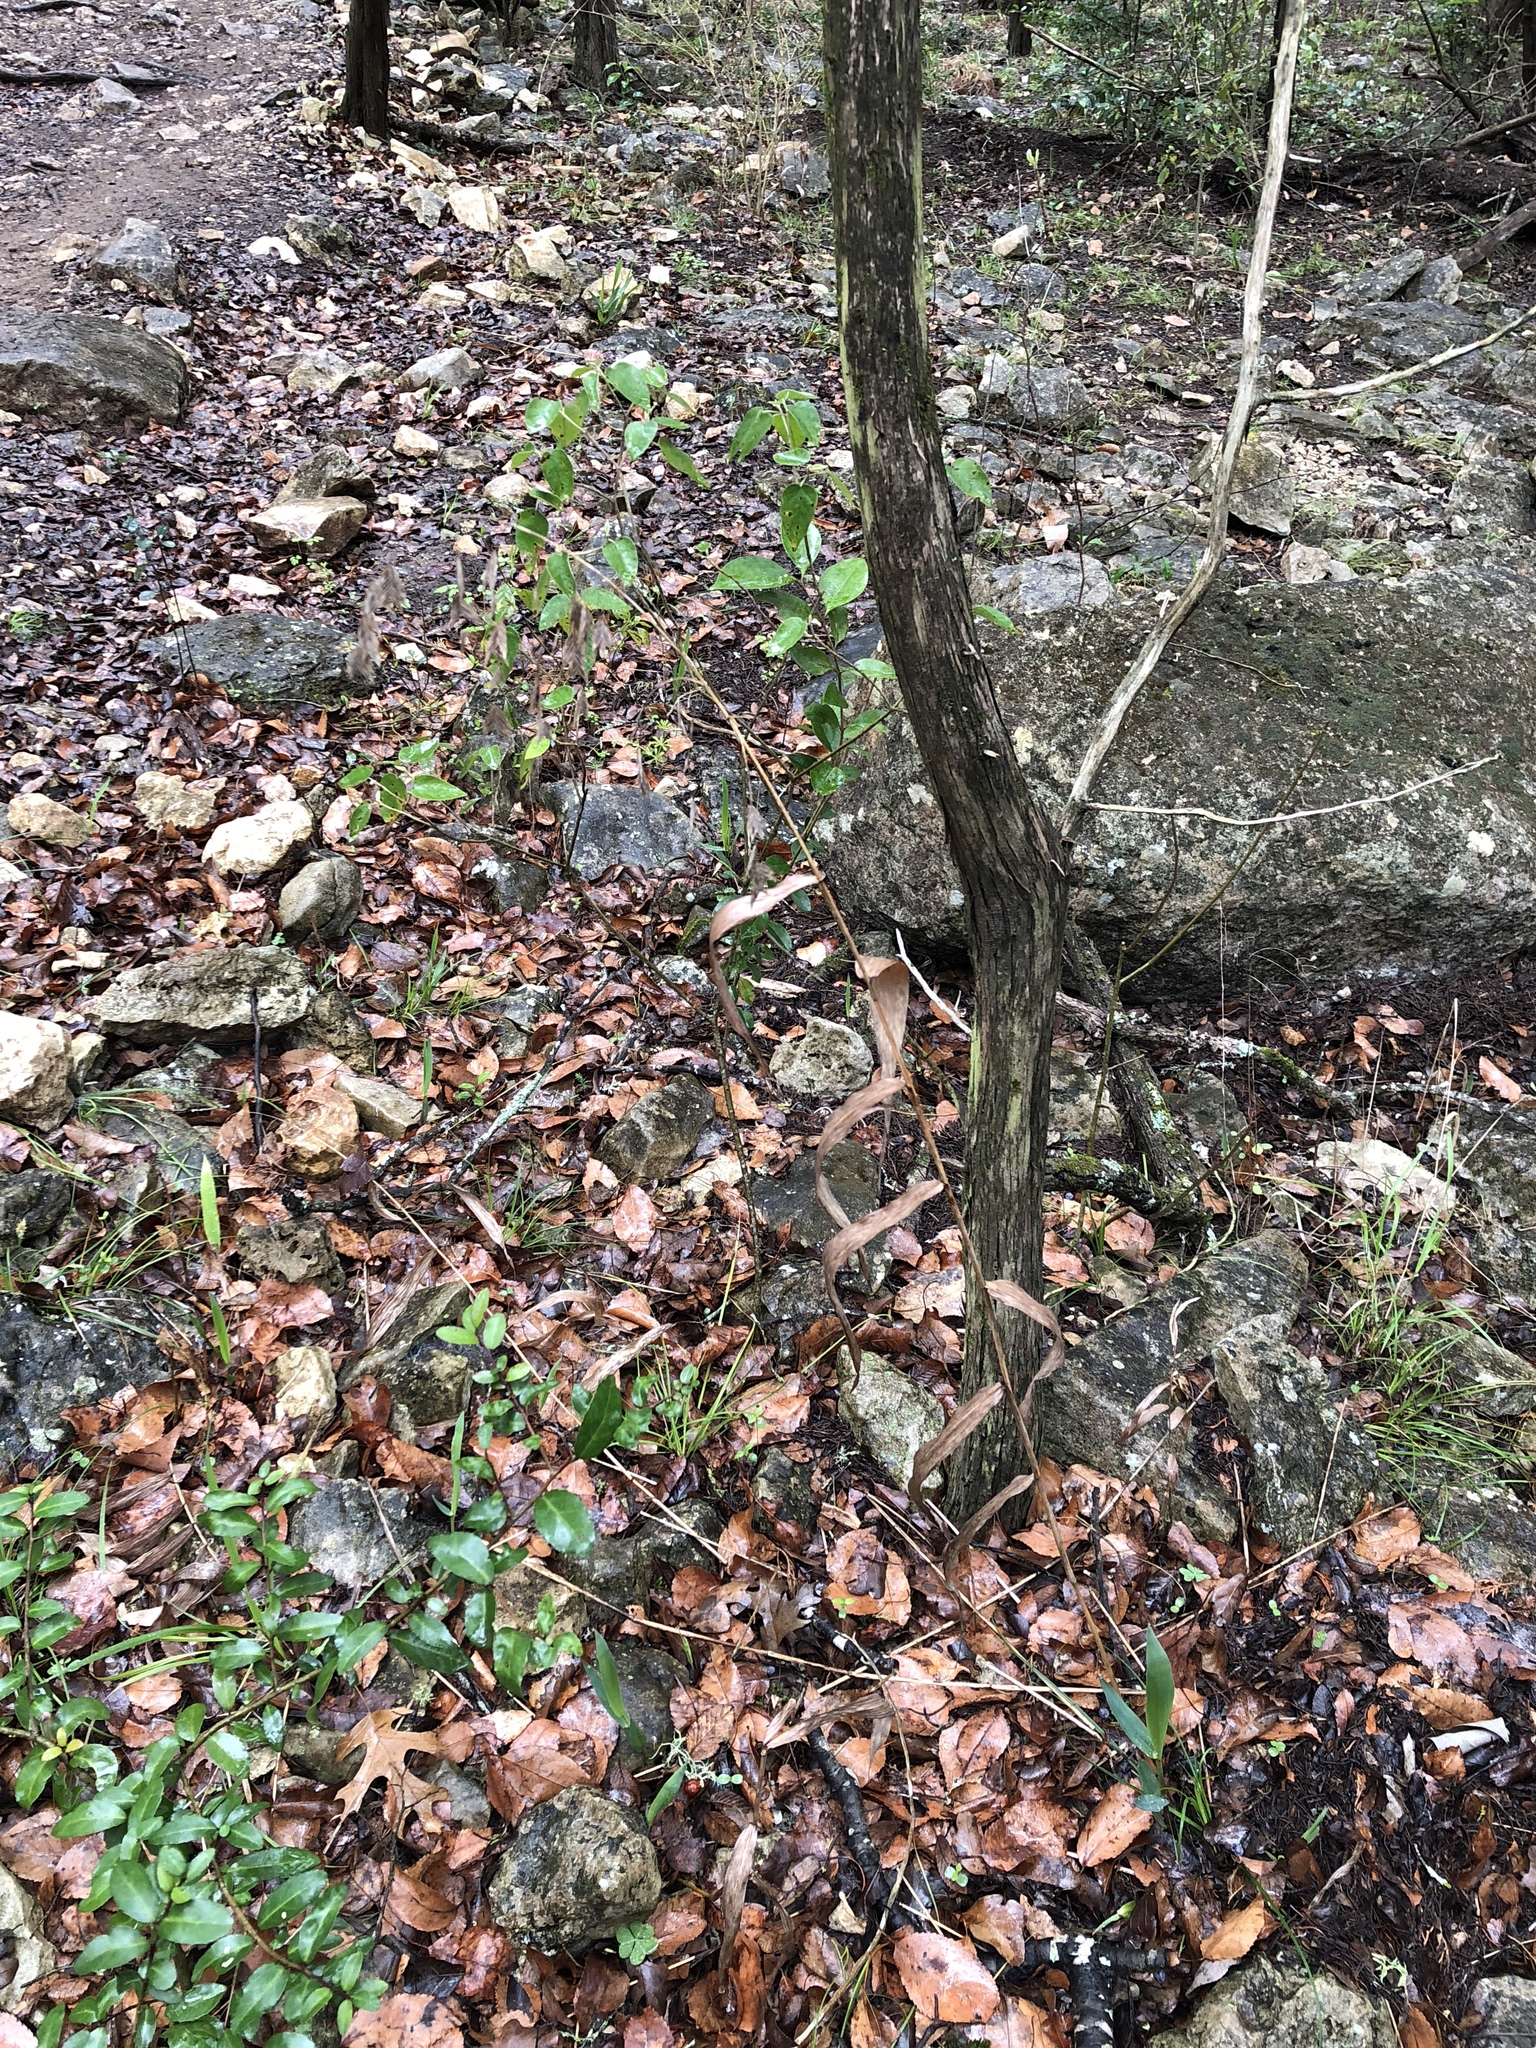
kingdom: Plantae
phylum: Tracheophyta
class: Liliopsida
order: Poales
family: Poaceae
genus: Chasmanthium
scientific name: Chasmanthium latifolium
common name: Broad-leaved chasmanthium
